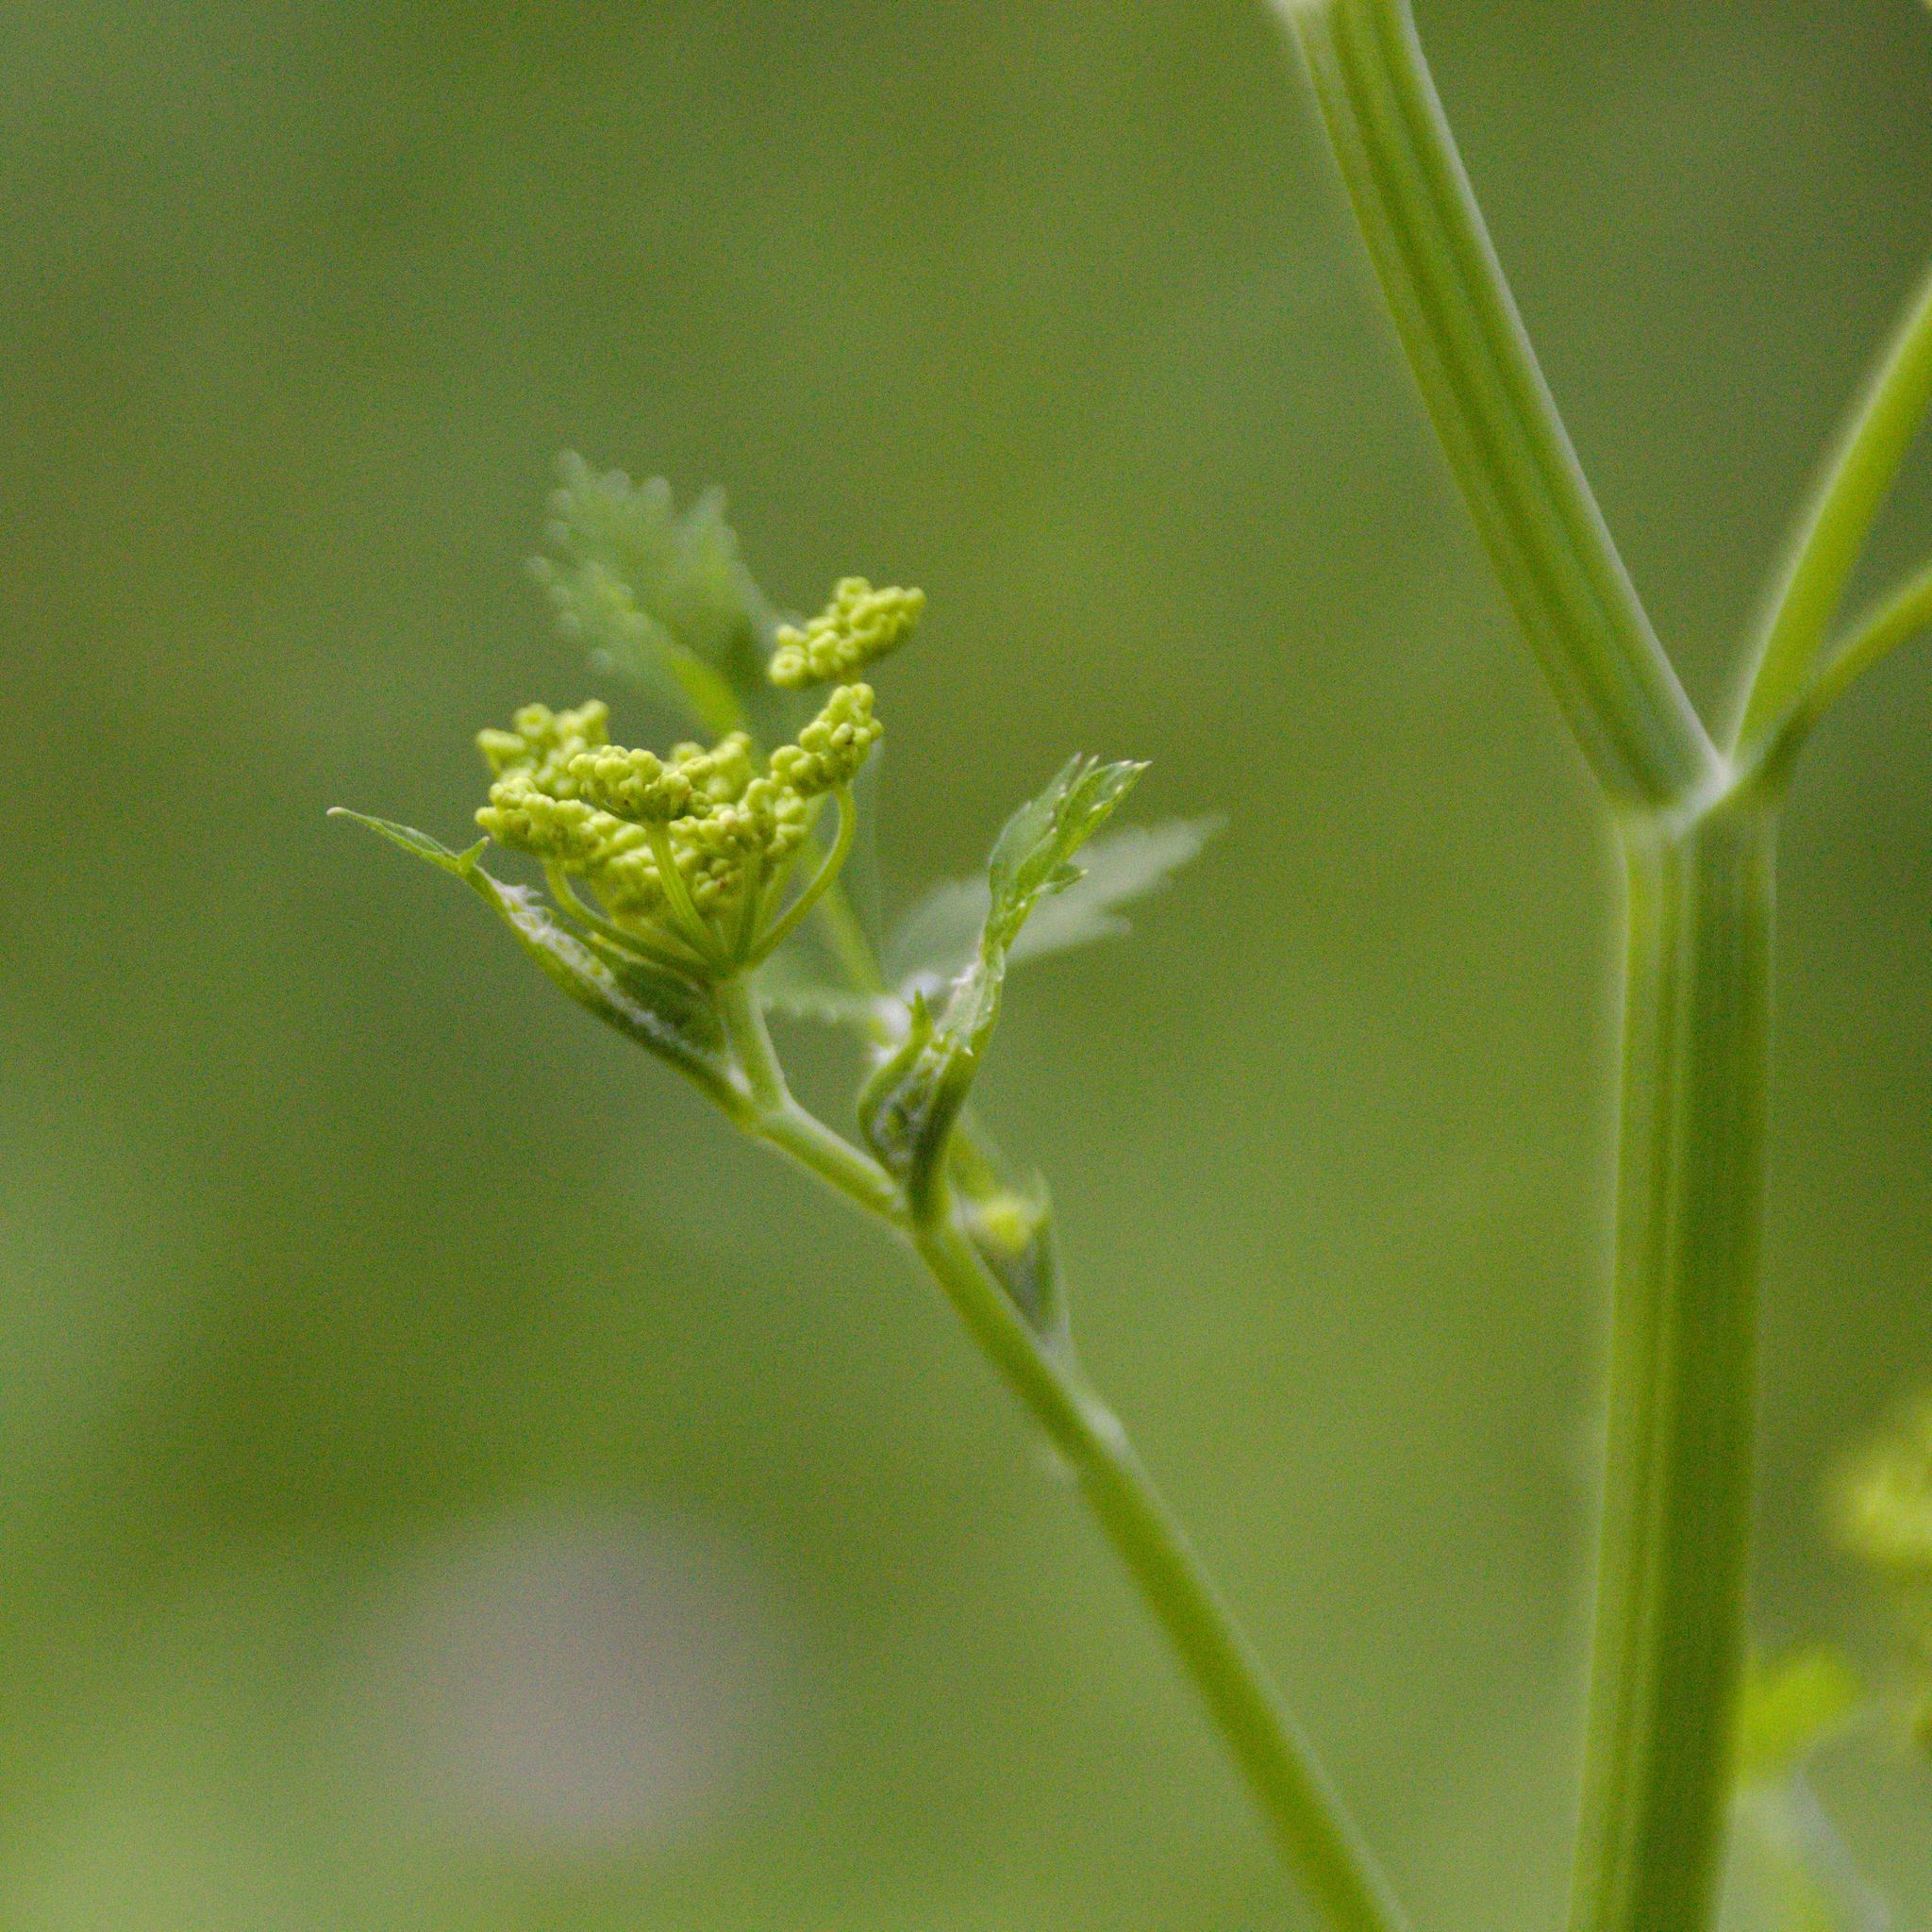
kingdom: Plantae
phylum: Tracheophyta
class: Magnoliopsida
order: Apiales
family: Apiaceae
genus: Pastinaca
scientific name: Pastinaca sativa
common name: Wild parsnip
